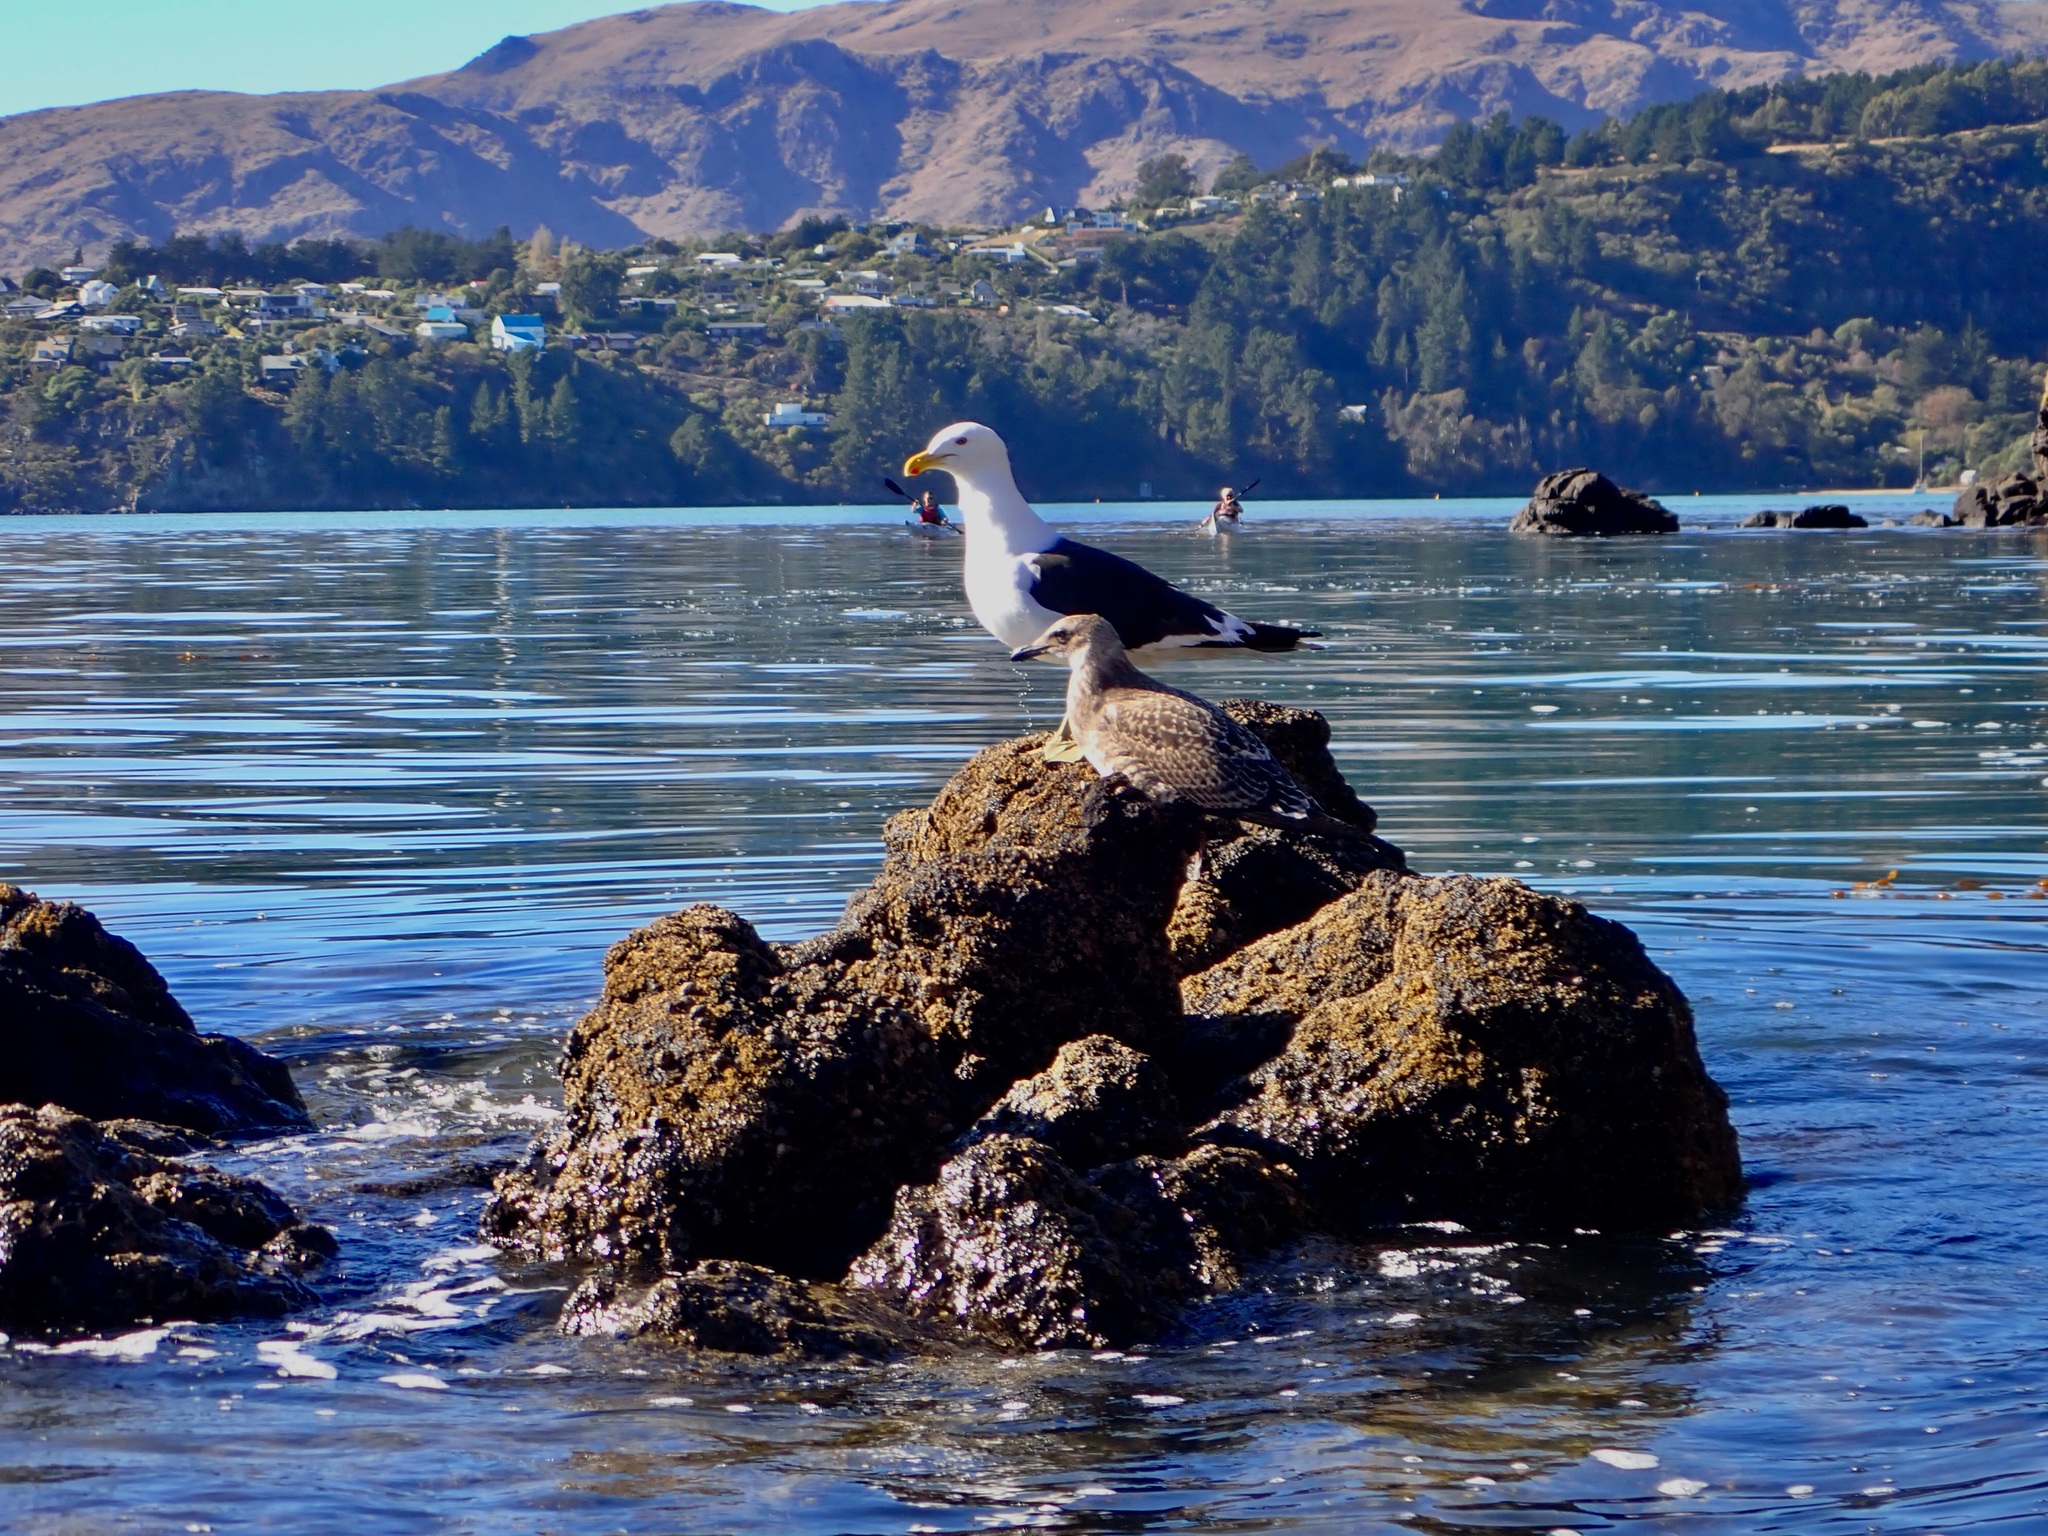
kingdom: Animalia
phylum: Chordata
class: Aves
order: Charadriiformes
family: Laridae
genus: Larus
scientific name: Larus dominicanus
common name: Kelp gull
